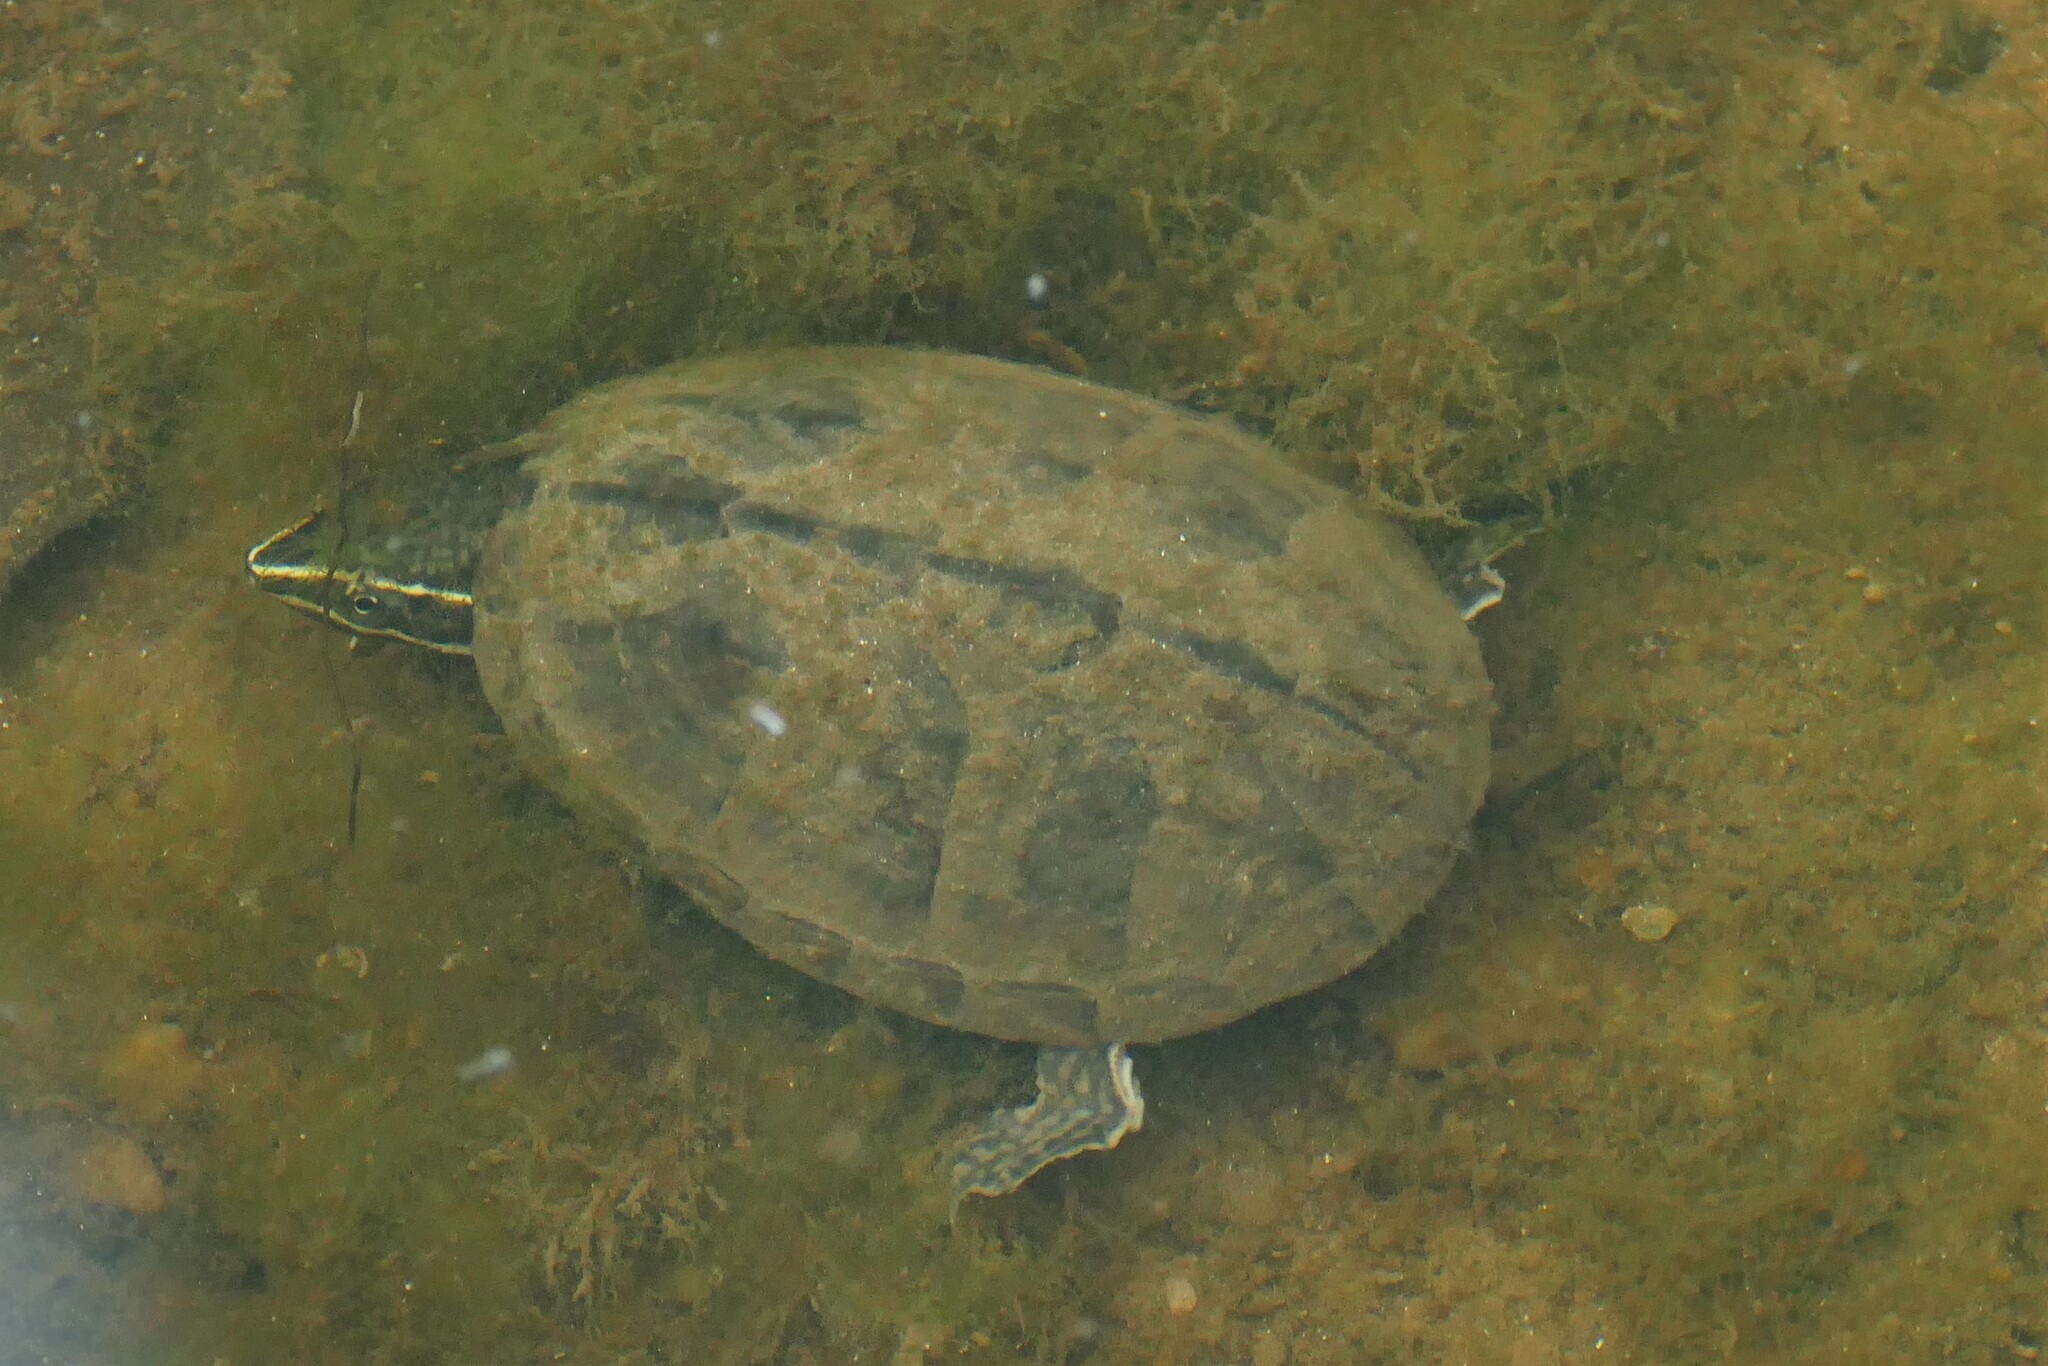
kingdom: Animalia
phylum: Chordata
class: Testudines
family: Kinosternidae
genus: Sternotherus
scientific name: Sternotherus odoratus
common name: Common musk turtle
